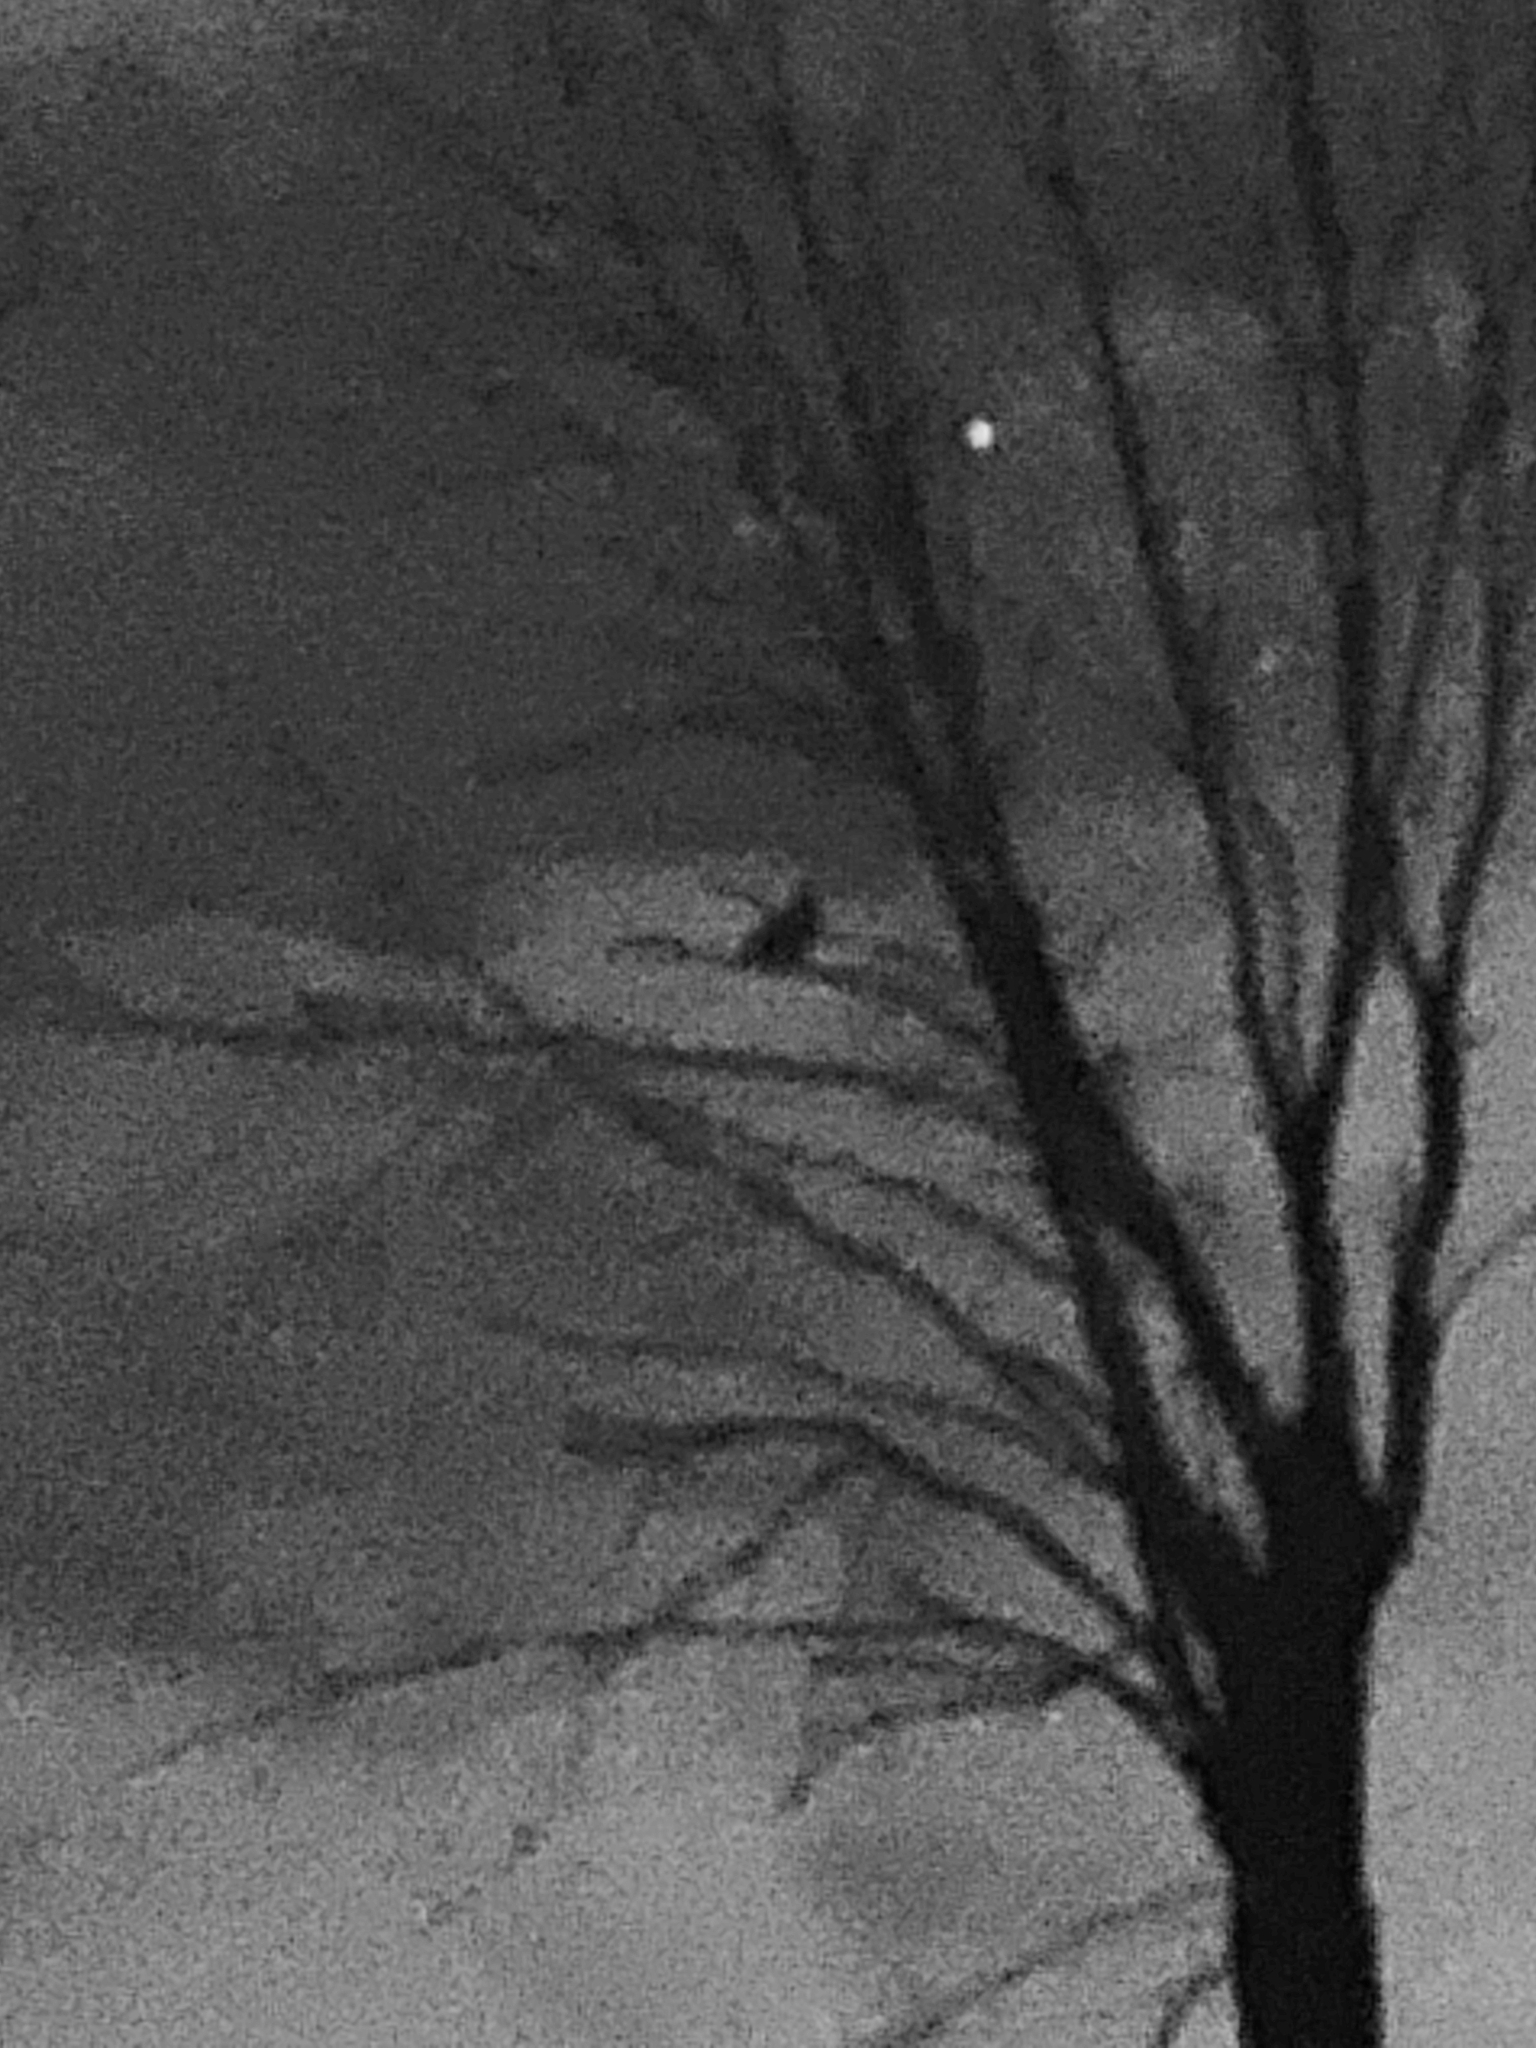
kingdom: Animalia
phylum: Chordata
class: Aves
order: Strigiformes
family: Strigidae
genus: Bubo
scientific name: Bubo virginianus
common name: Great horned owl
